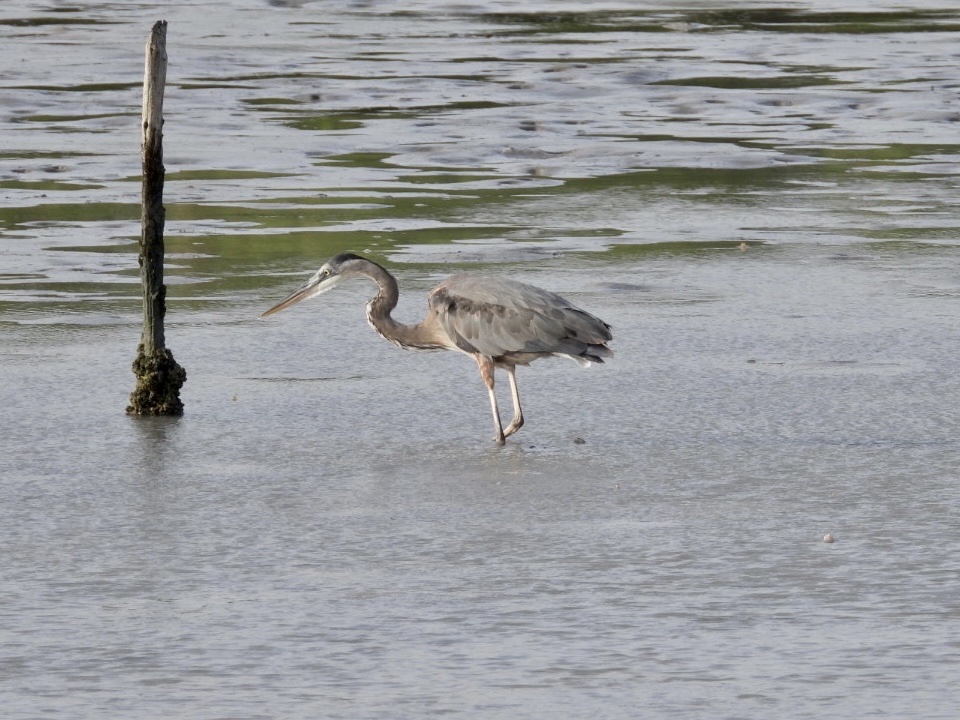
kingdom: Animalia
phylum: Chordata
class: Aves
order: Pelecaniformes
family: Ardeidae
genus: Ardea
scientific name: Ardea herodias
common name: Great blue heron
